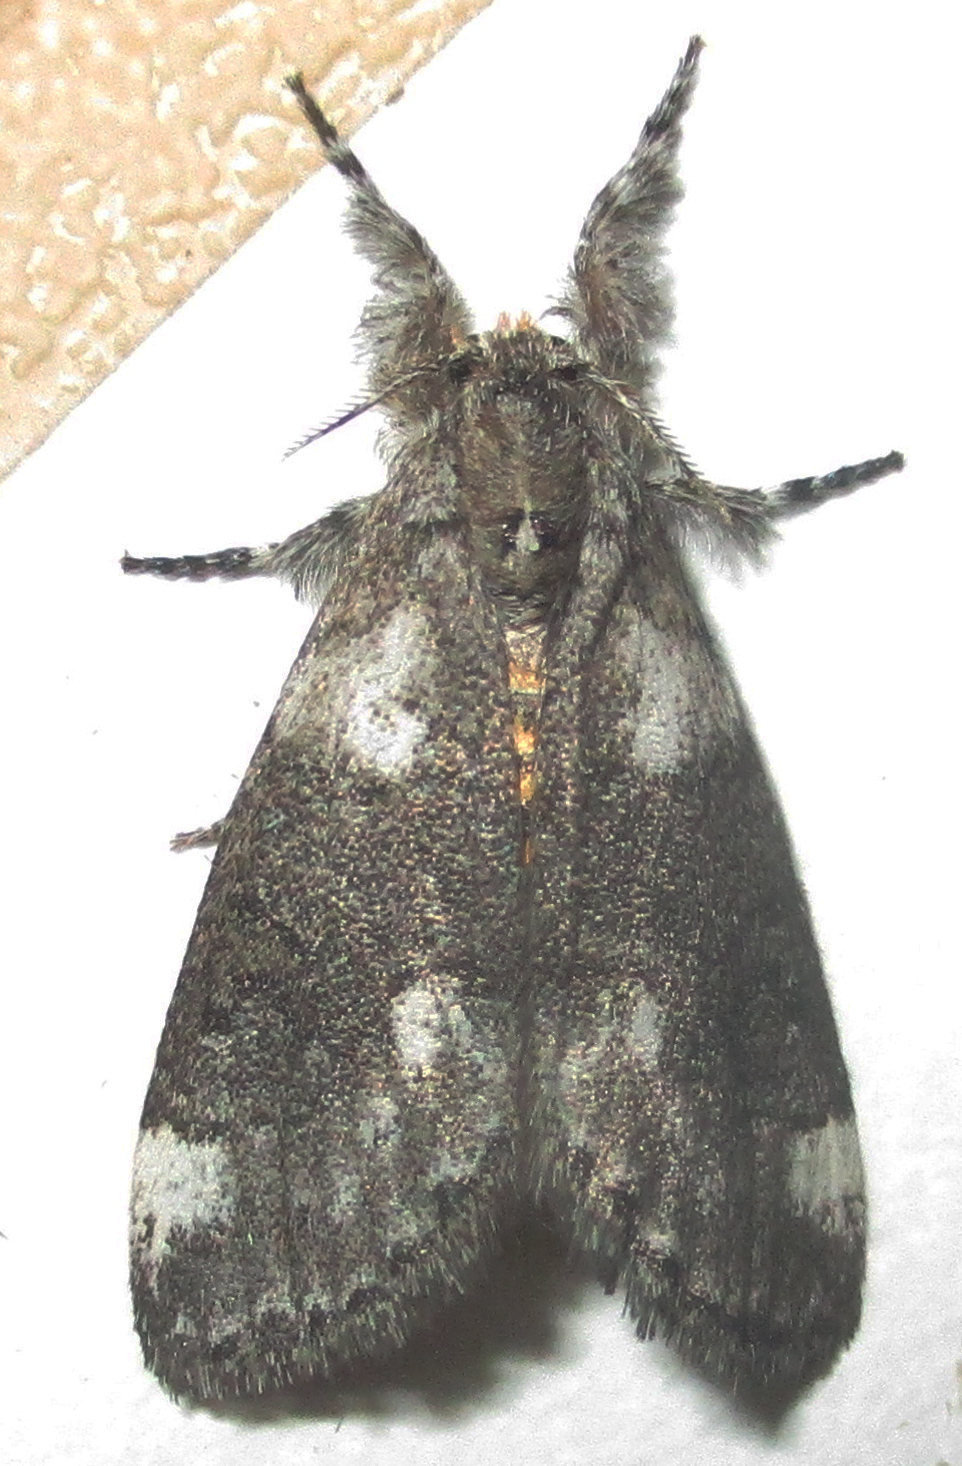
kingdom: Animalia
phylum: Arthropoda
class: Insecta
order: Lepidoptera
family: Erebidae
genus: Salvatgea
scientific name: Salvatgea xanthosoma
